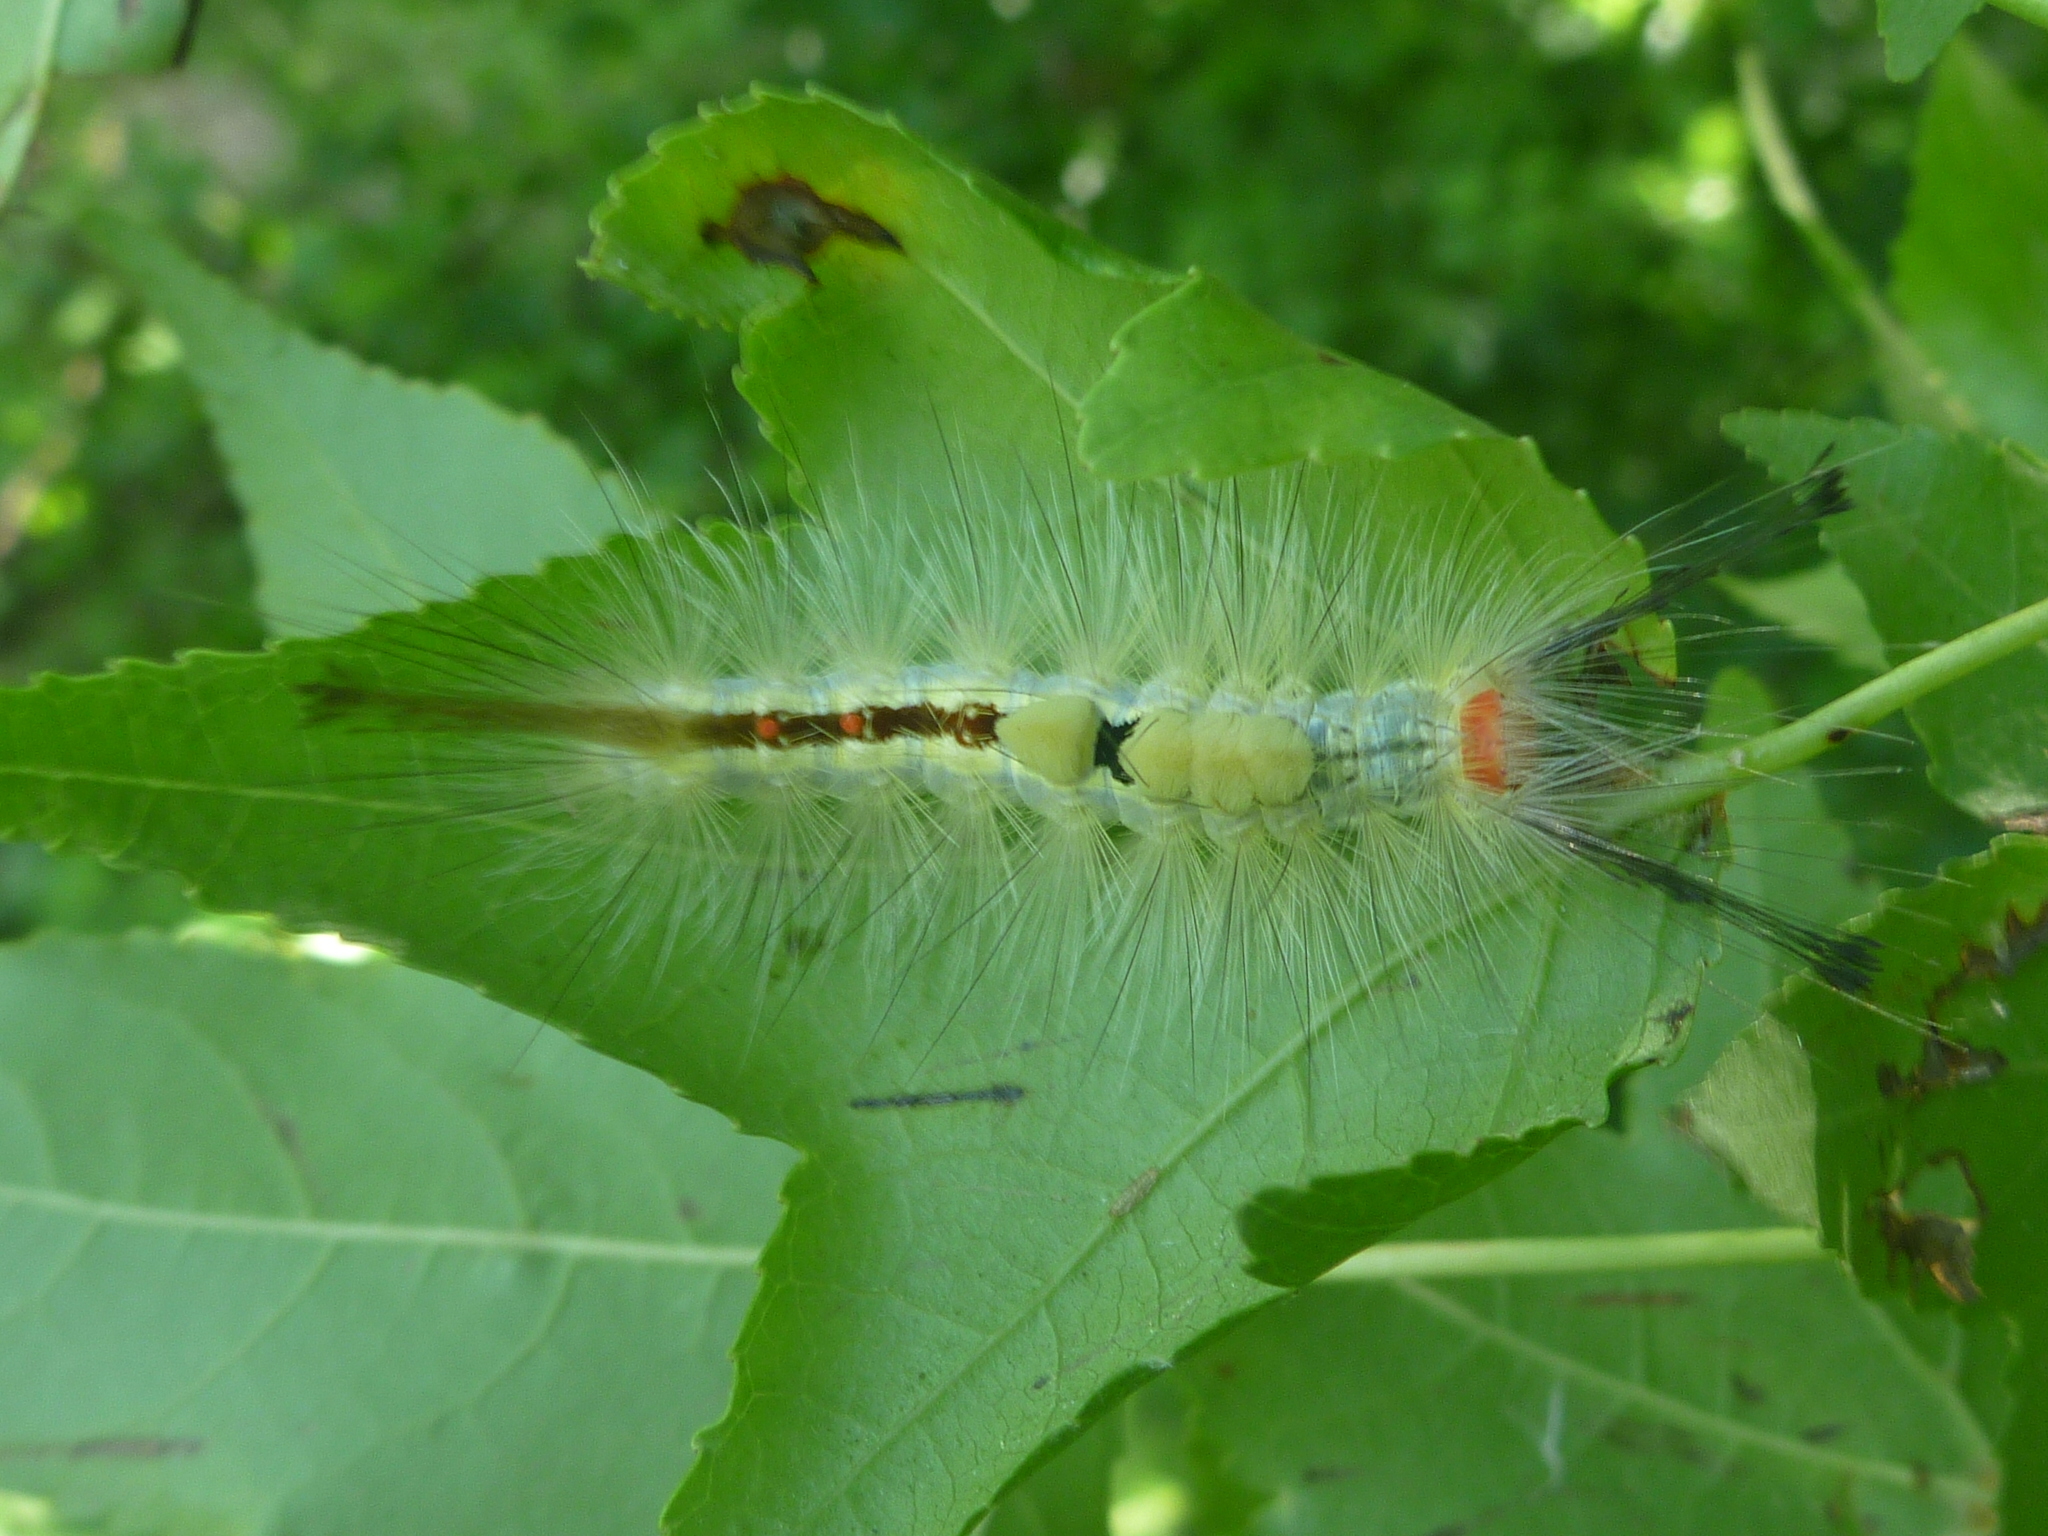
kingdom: Animalia
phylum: Arthropoda
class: Insecta
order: Lepidoptera
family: Erebidae
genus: Orgyia
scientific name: Orgyia leucostigma
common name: White-marked tussock moth
